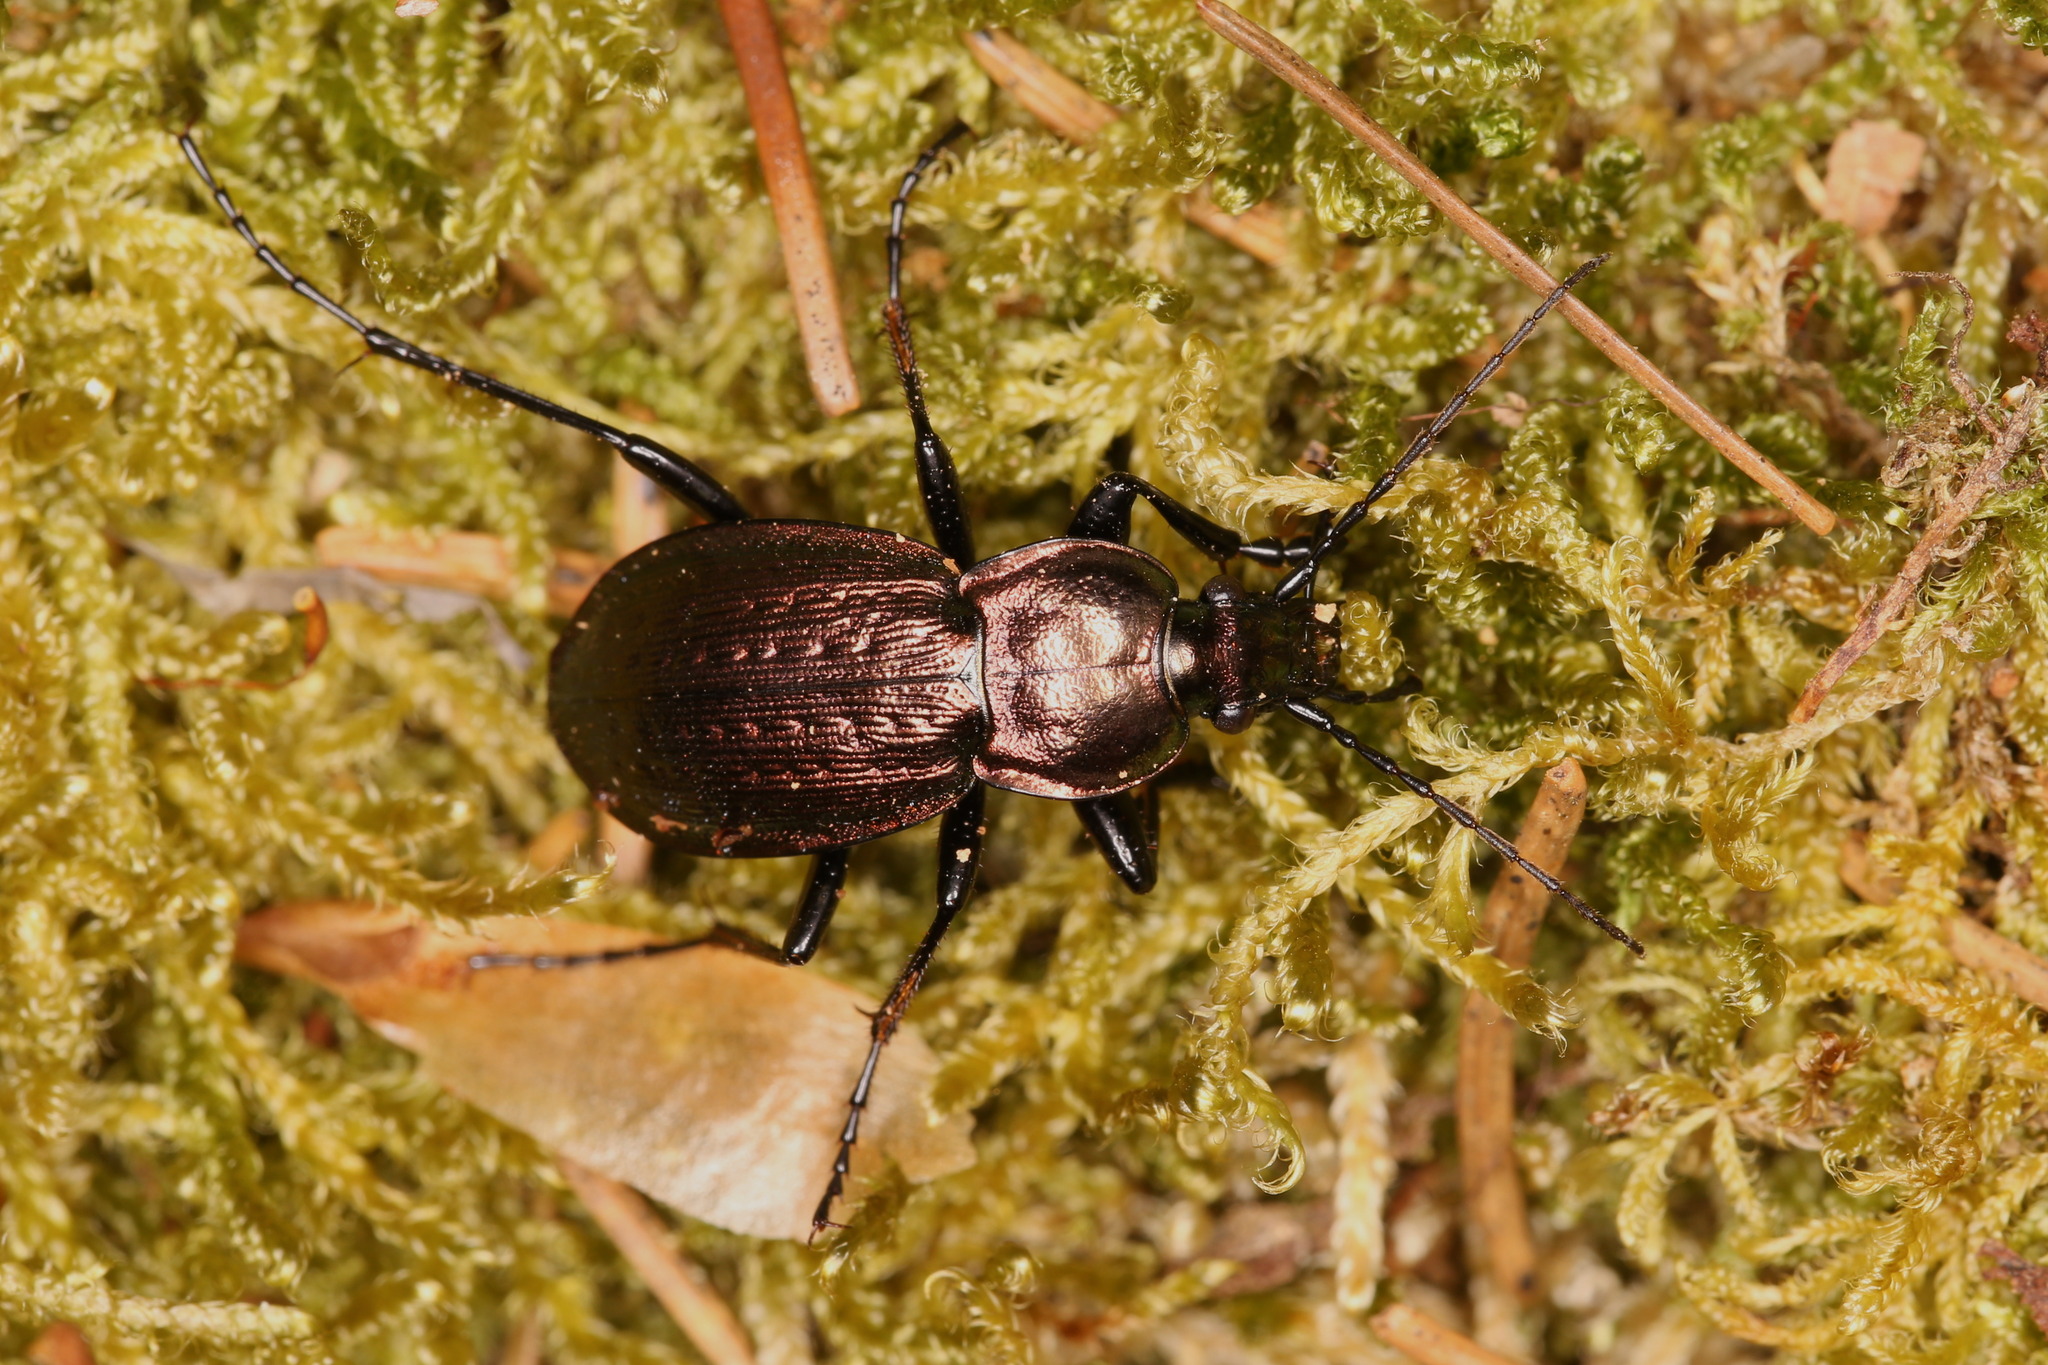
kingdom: Animalia
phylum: Arthropoda
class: Insecta
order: Coleoptera
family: Carabidae
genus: Carabus
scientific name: Carabus arvensis
